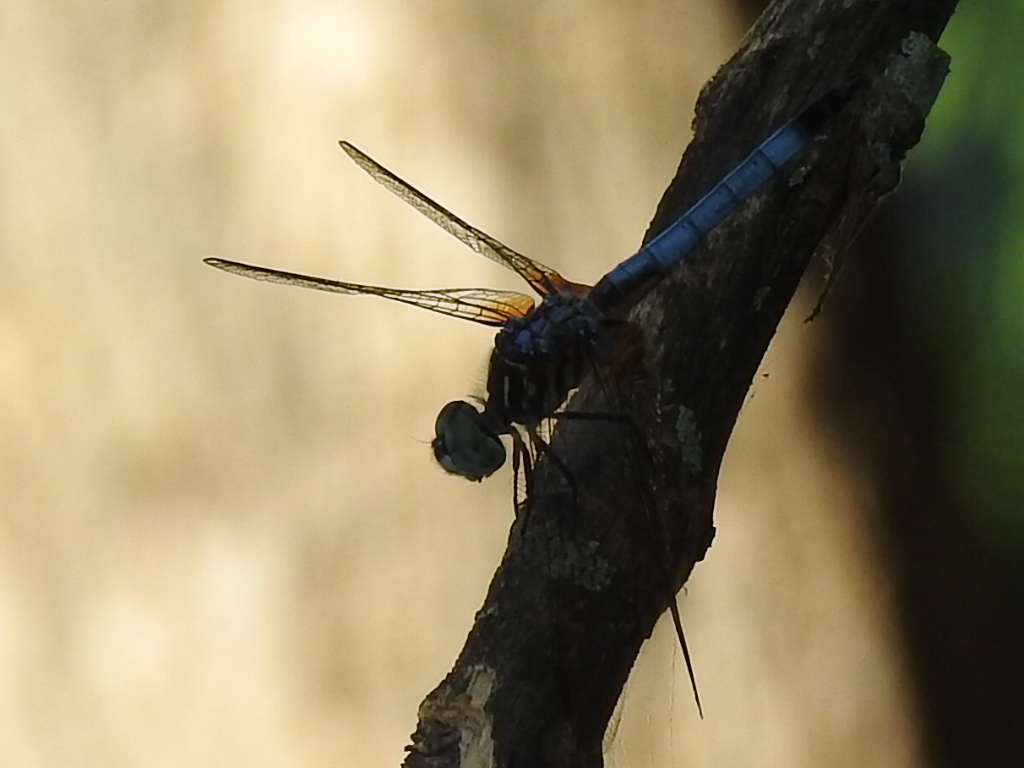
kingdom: Animalia
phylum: Arthropoda
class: Insecta
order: Odonata
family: Libellulidae
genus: Pachydiplax
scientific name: Pachydiplax longipennis
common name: Blue dasher
